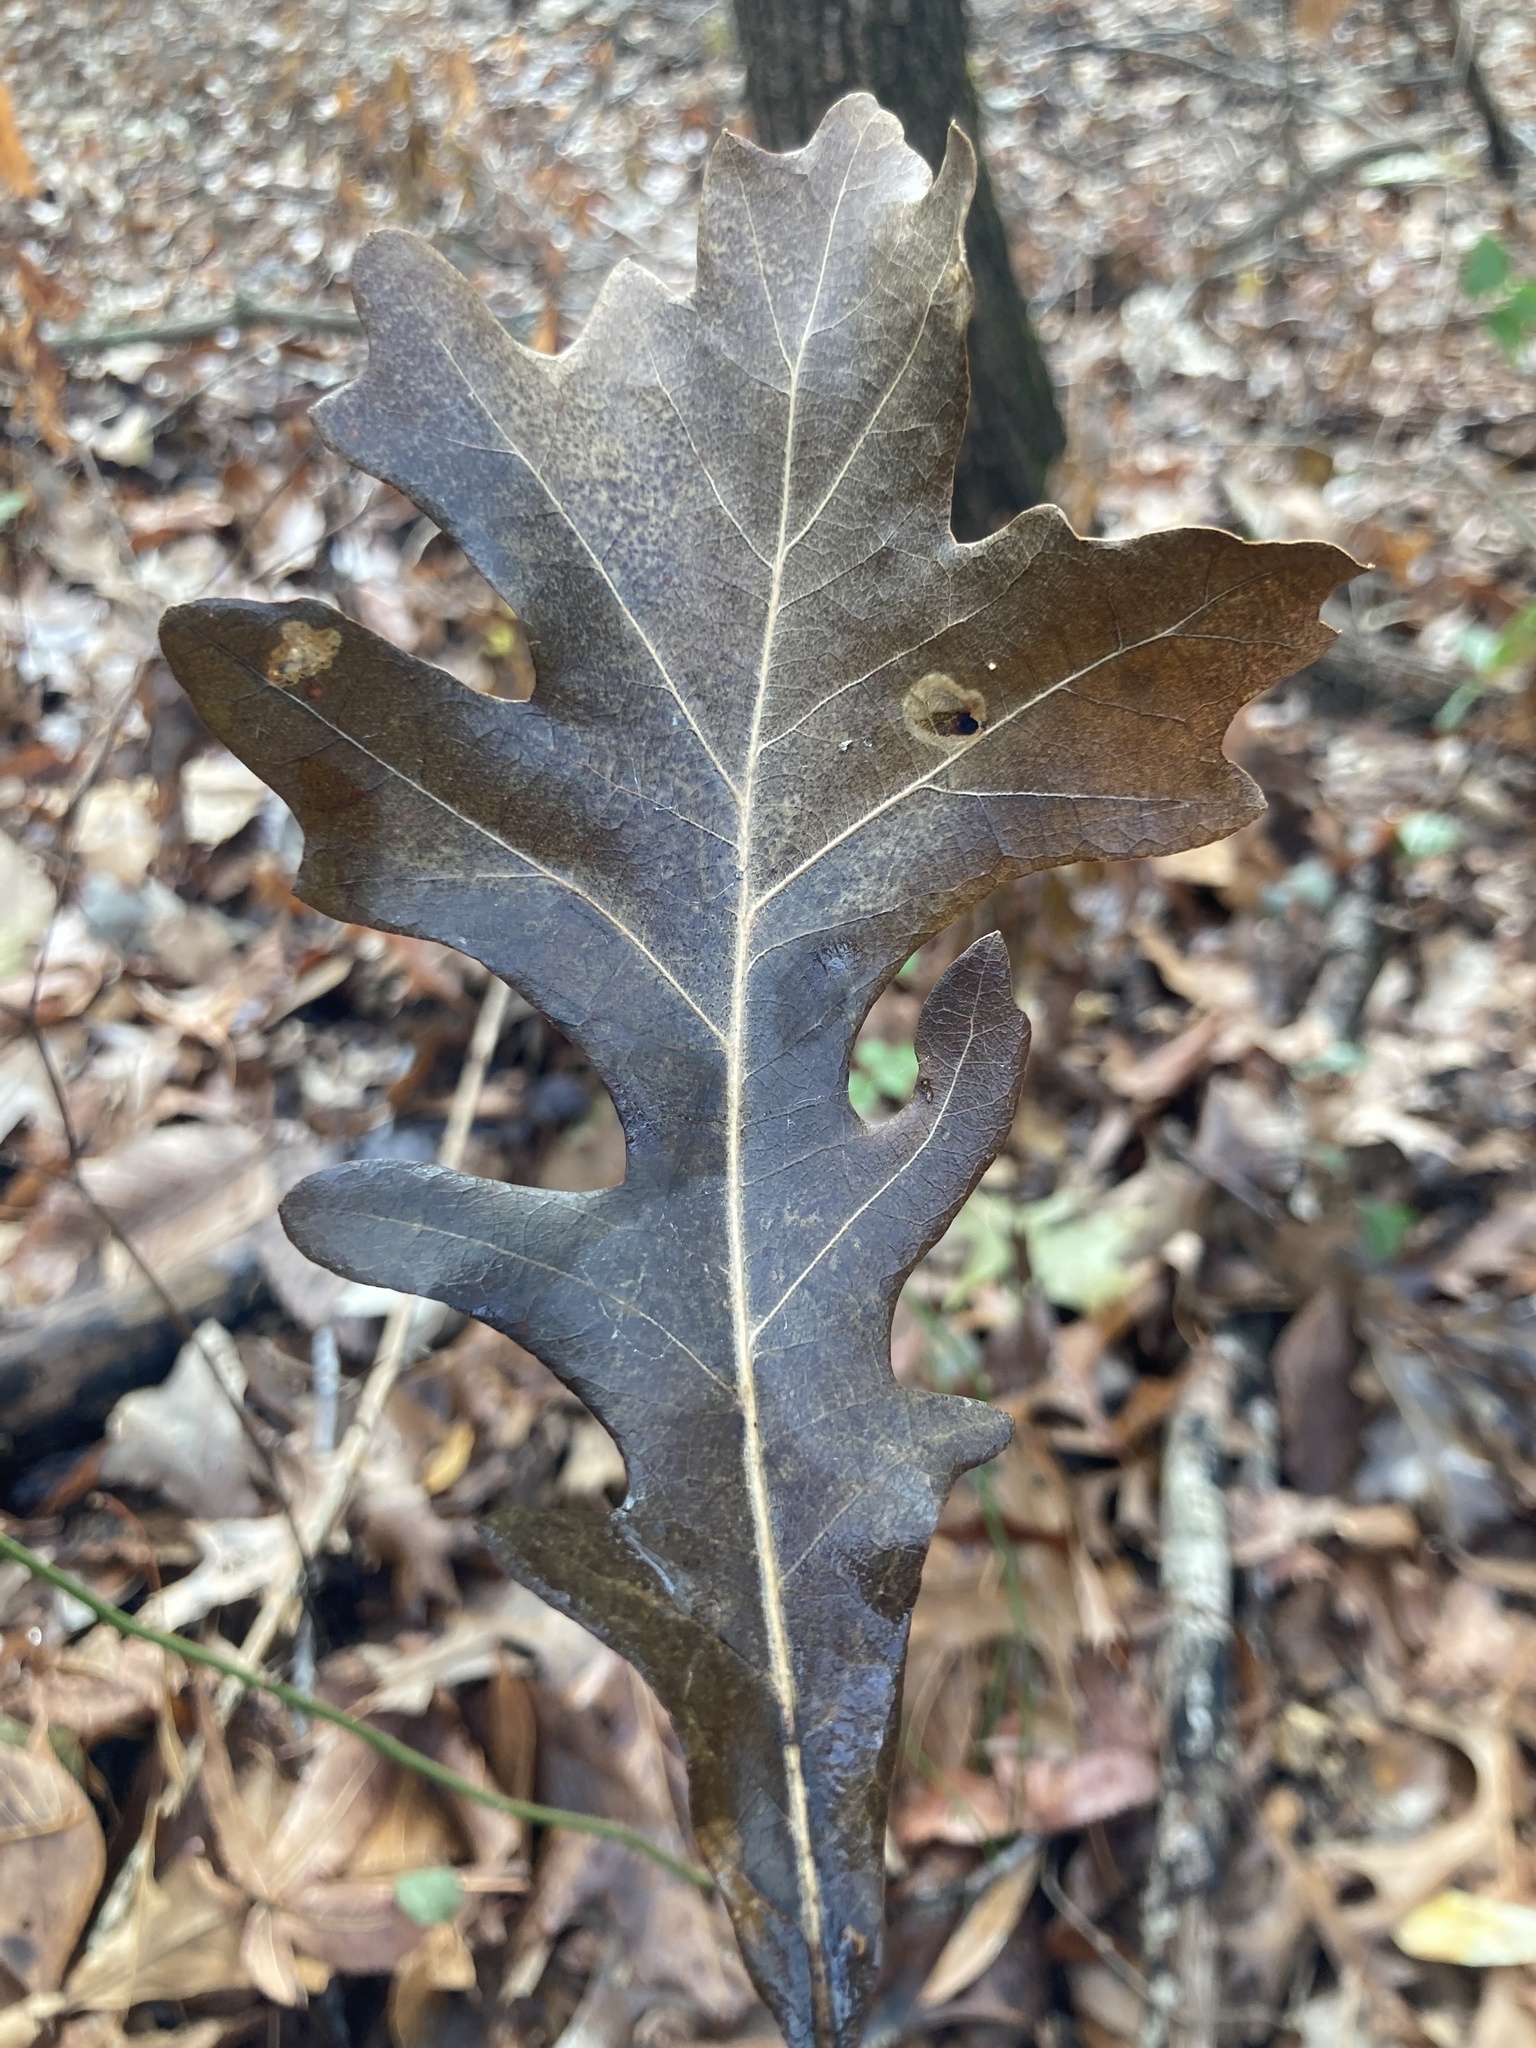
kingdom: Plantae
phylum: Tracheophyta
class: Magnoliopsida
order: Fagales
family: Fagaceae
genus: Quercus
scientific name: Quercus lyrata
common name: Overcup oak
